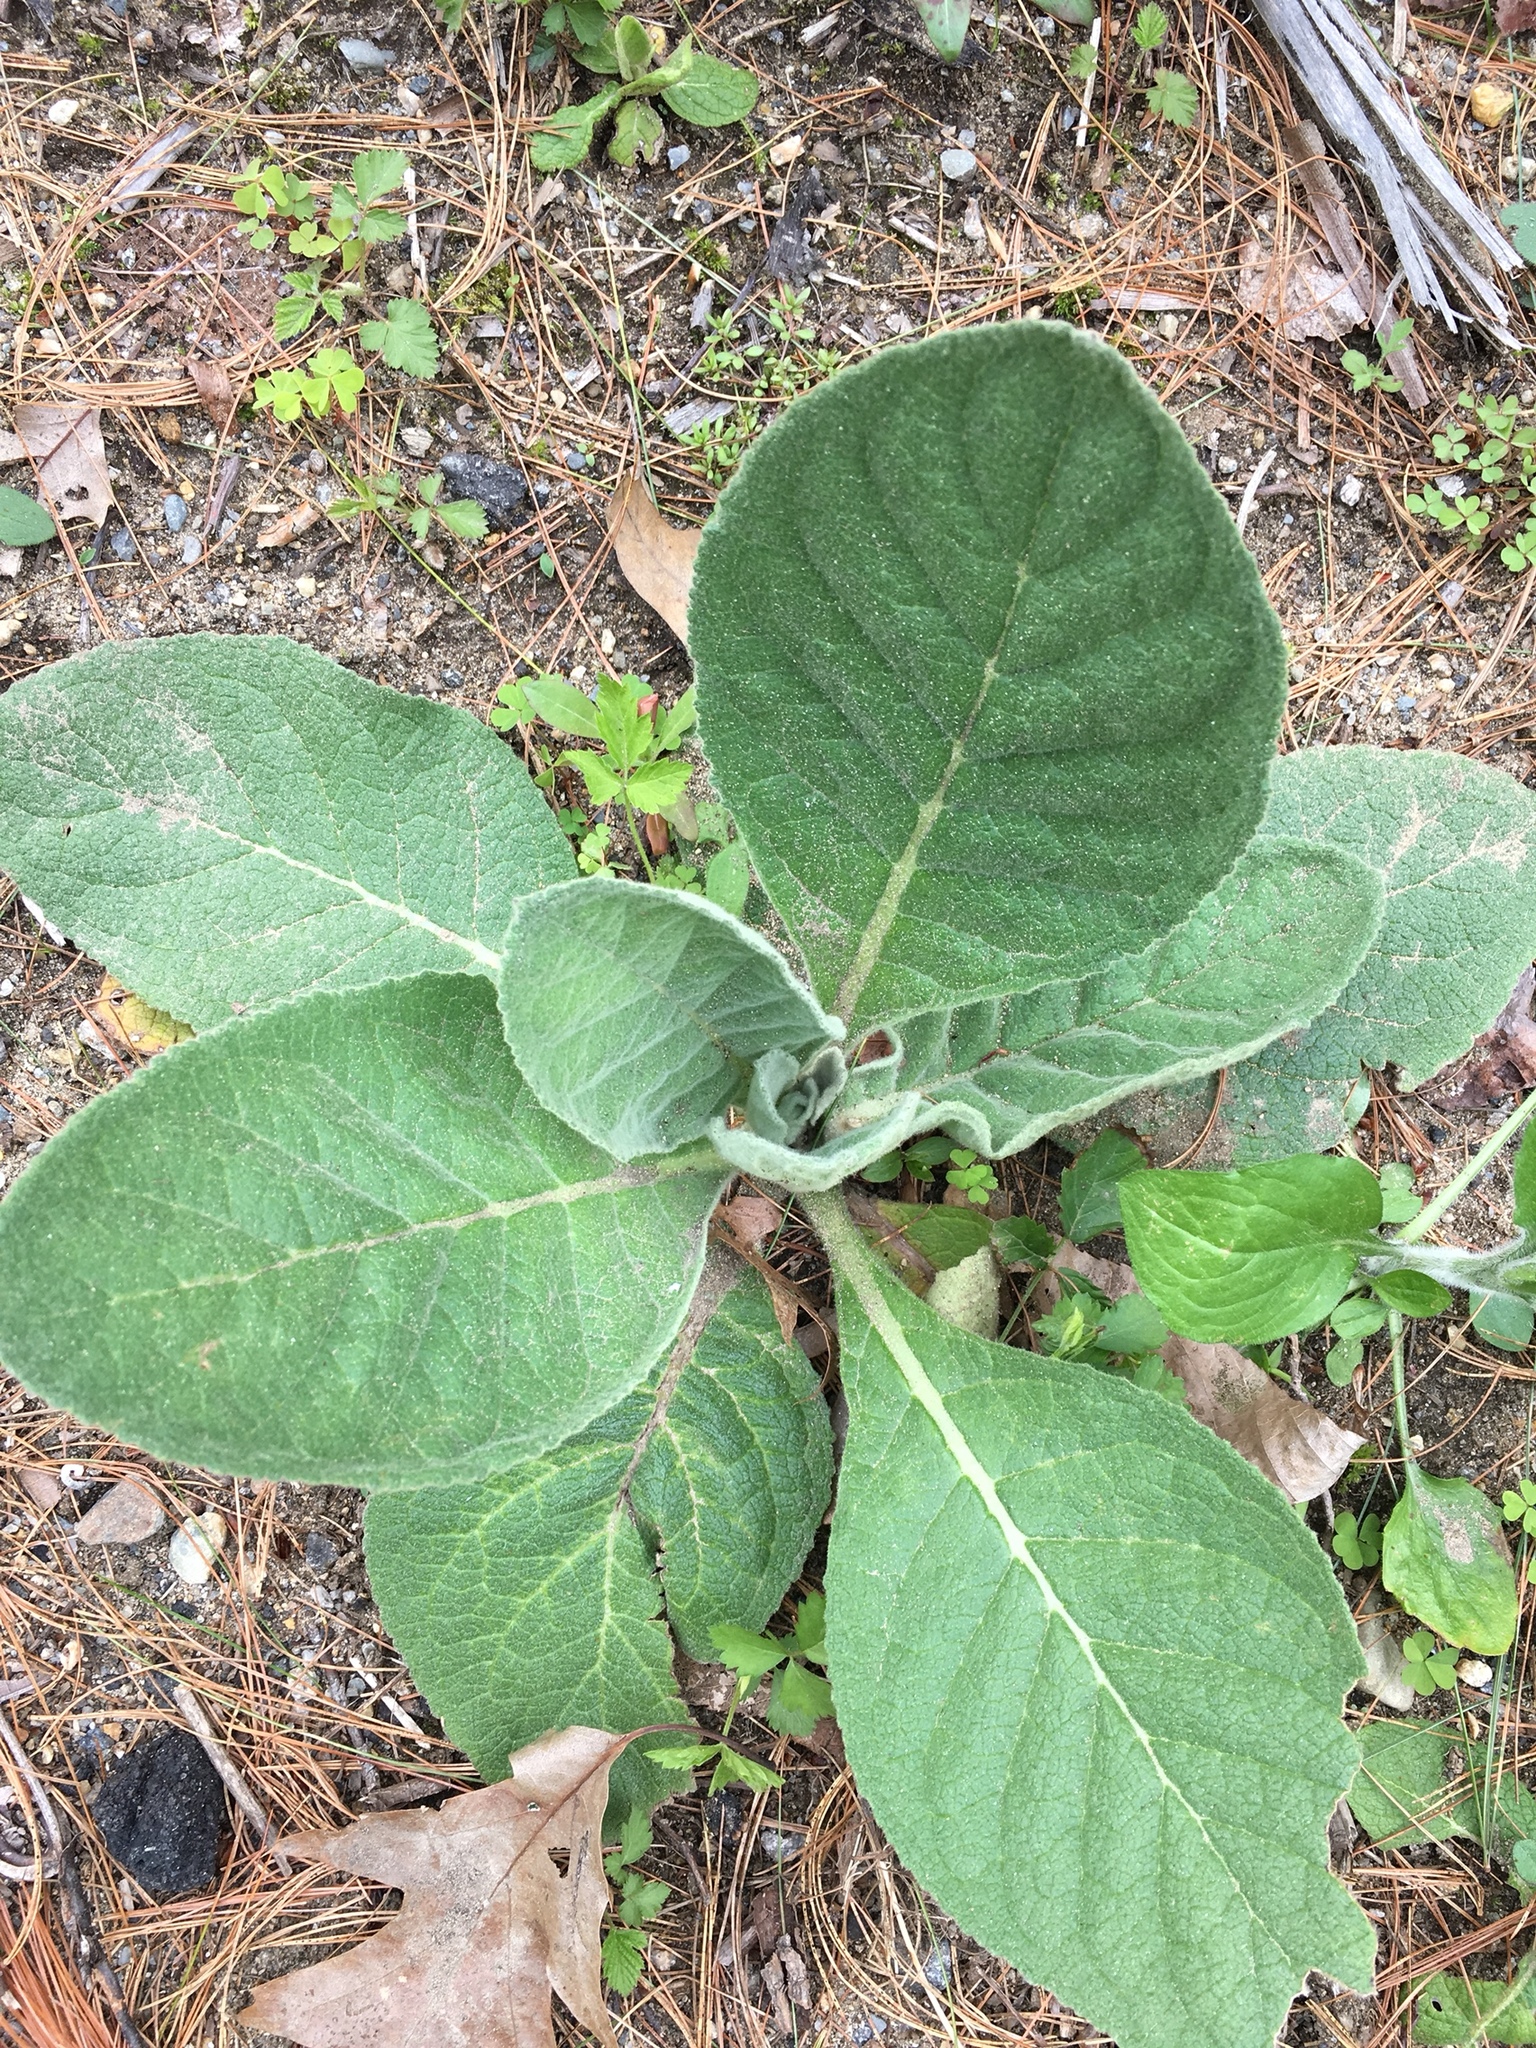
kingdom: Plantae
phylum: Tracheophyta
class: Magnoliopsida
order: Lamiales
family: Scrophulariaceae
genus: Verbascum
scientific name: Verbascum thapsus
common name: Common mullein
